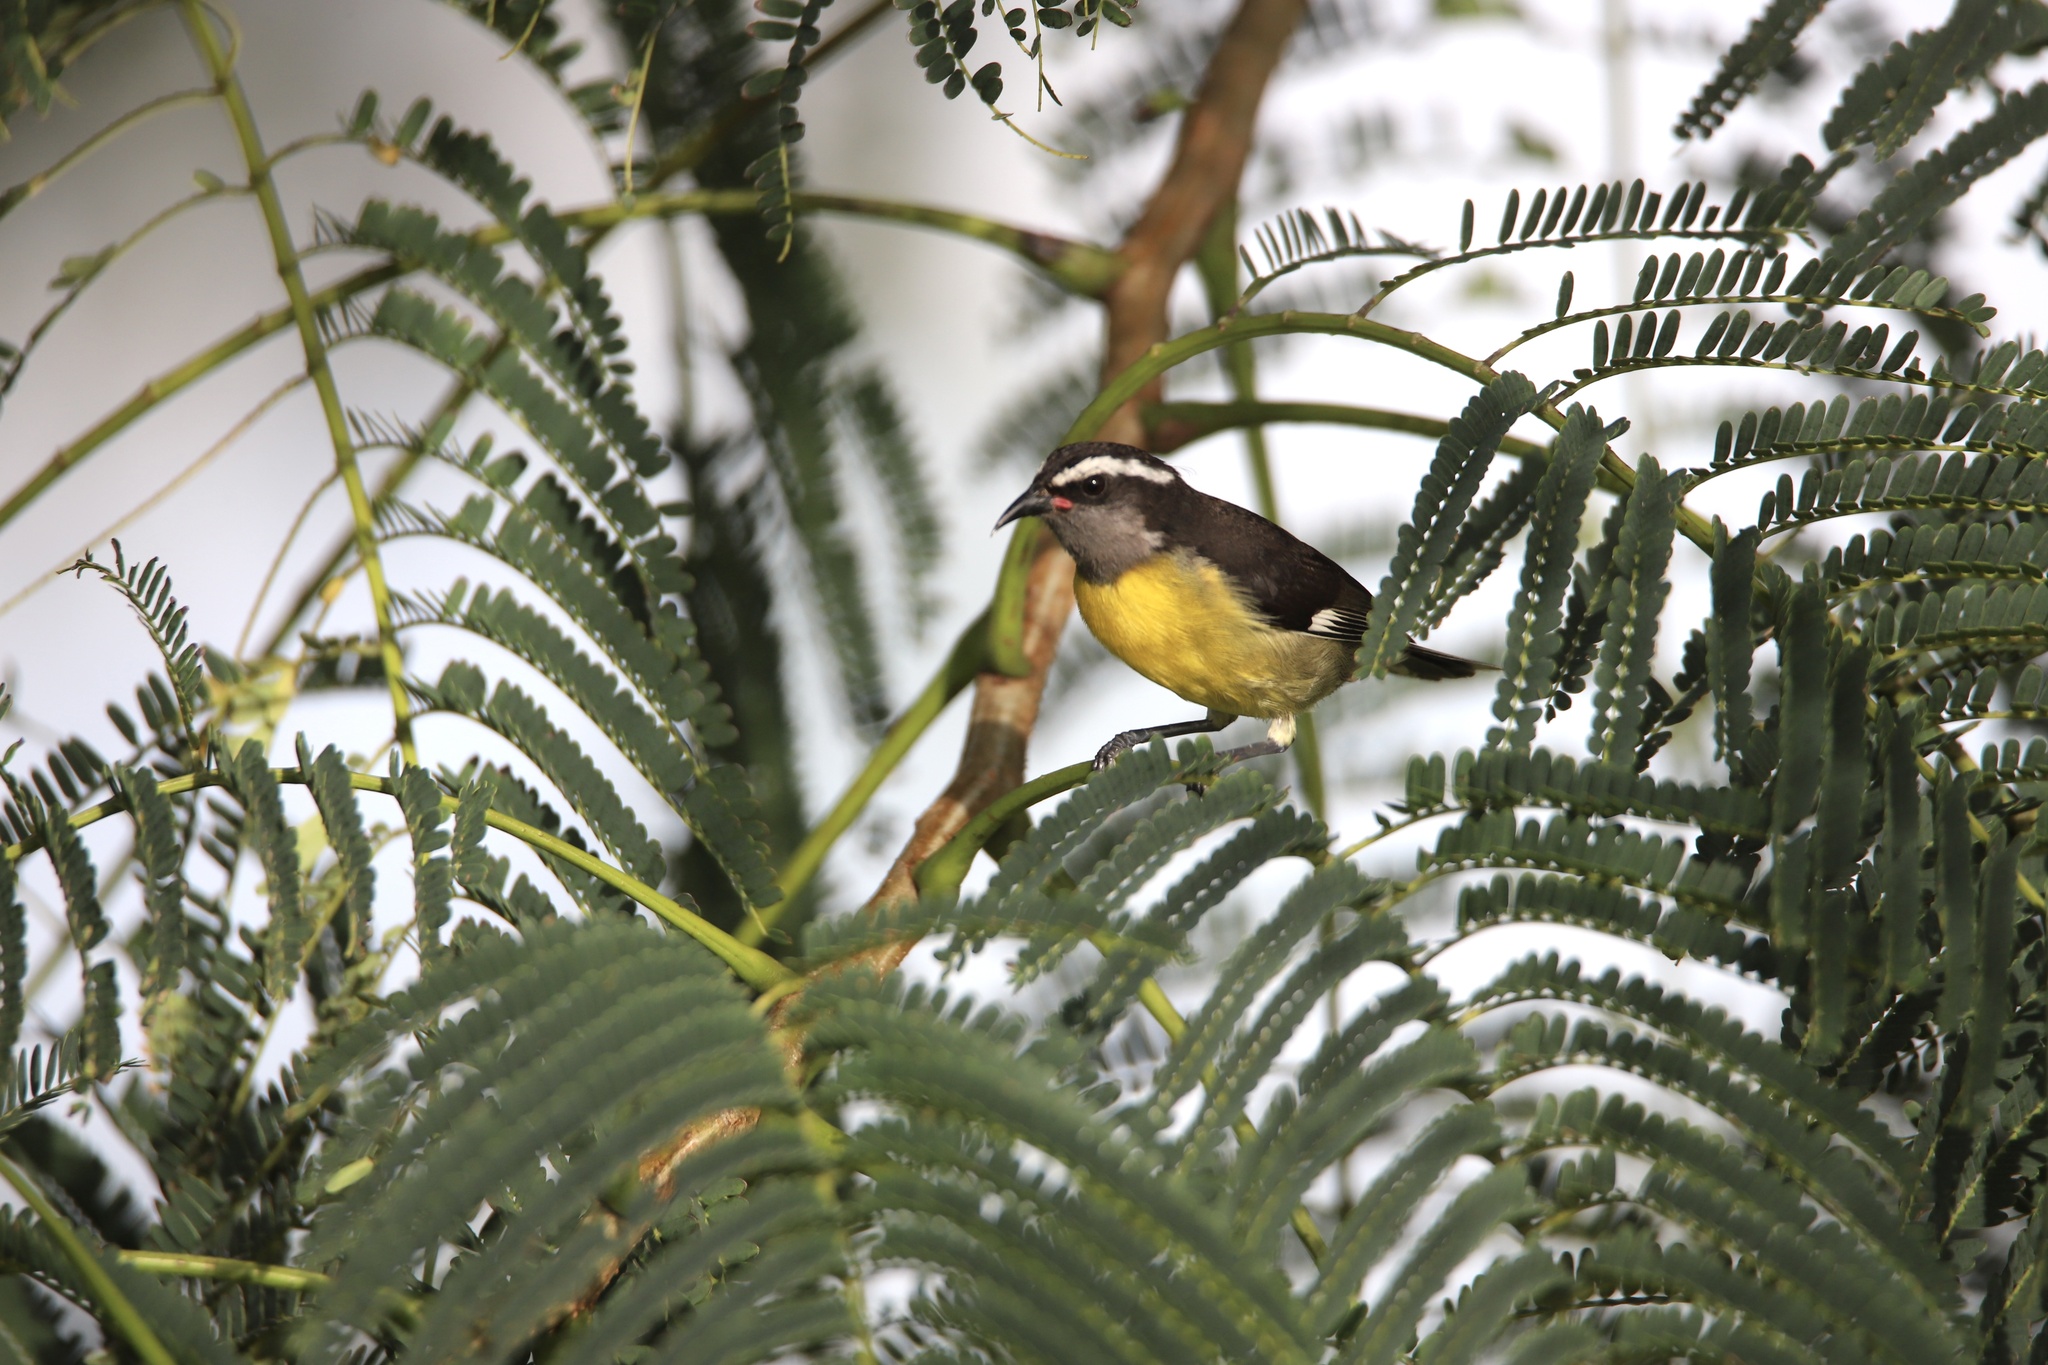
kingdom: Animalia
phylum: Chordata
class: Aves
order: Passeriformes
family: Thraupidae
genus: Coereba
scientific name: Coereba flaveola
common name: Bananaquit
